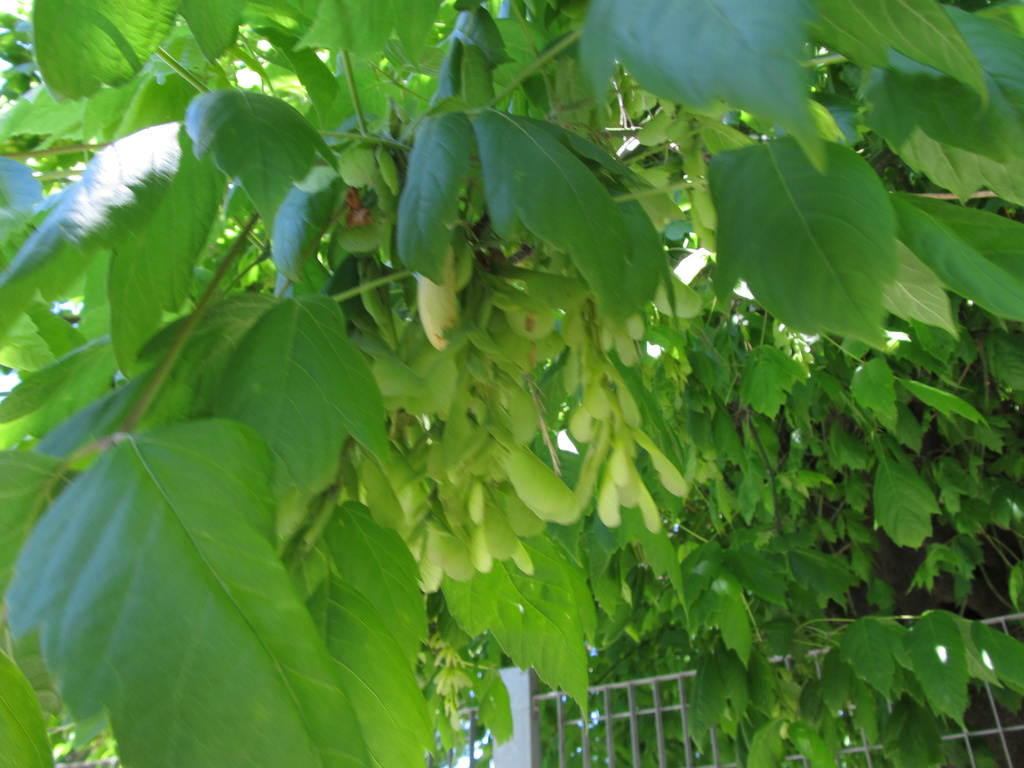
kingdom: Plantae
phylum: Tracheophyta
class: Magnoliopsida
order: Sapindales
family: Sapindaceae
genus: Acer
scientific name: Acer negundo
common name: Ashleaf maple
